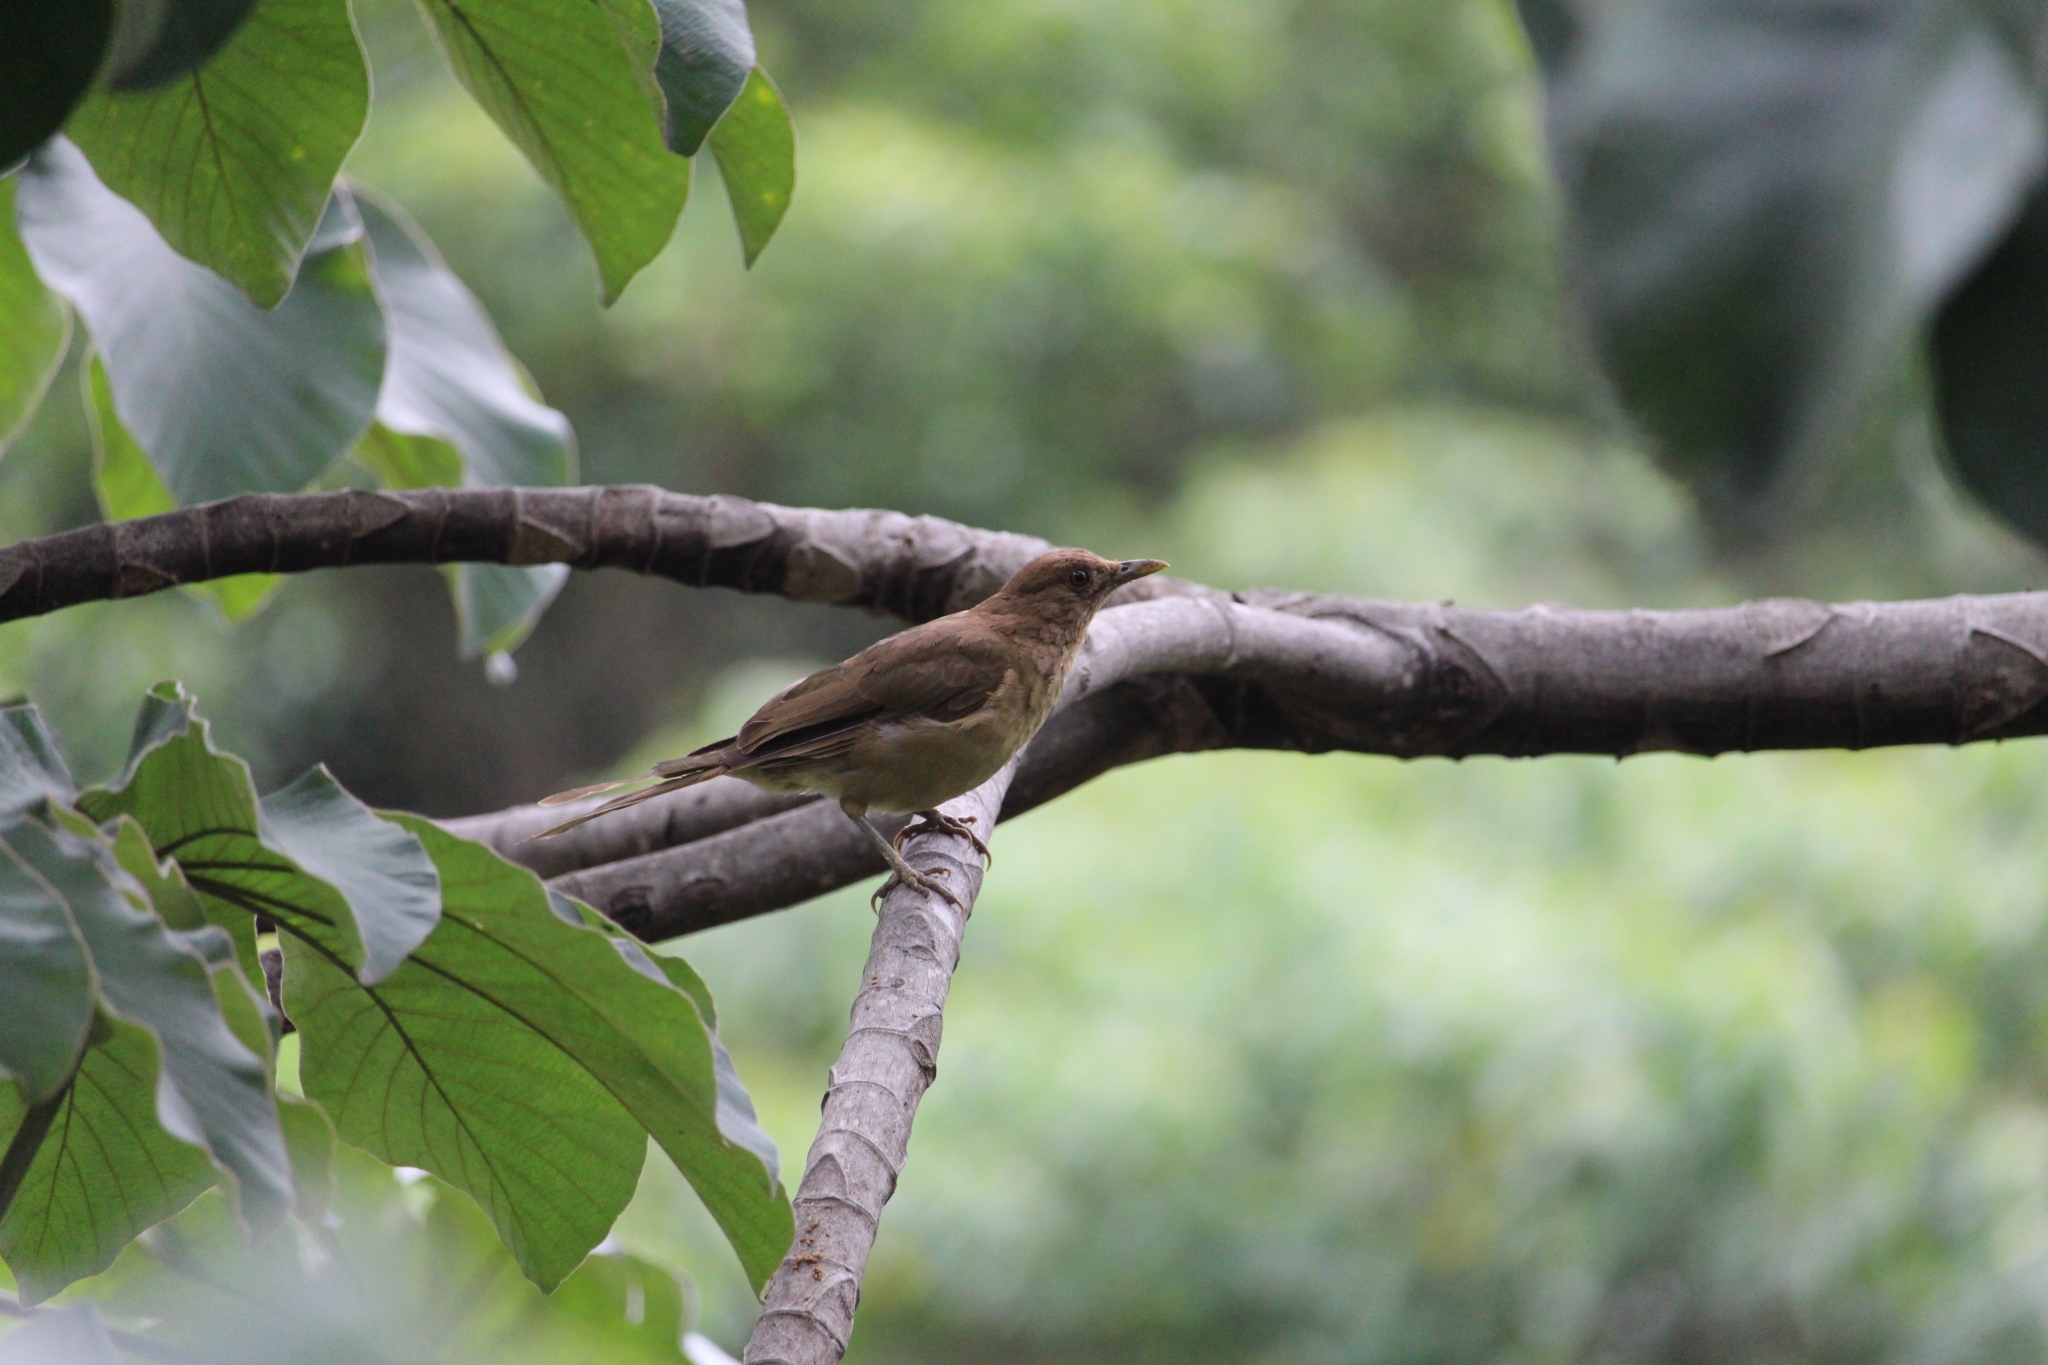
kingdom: Animalia
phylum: Chordata
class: Aves
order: Passeriformes
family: Turdidae
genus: Turdus
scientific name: Turdus grayi
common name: Clay-colored thrush
